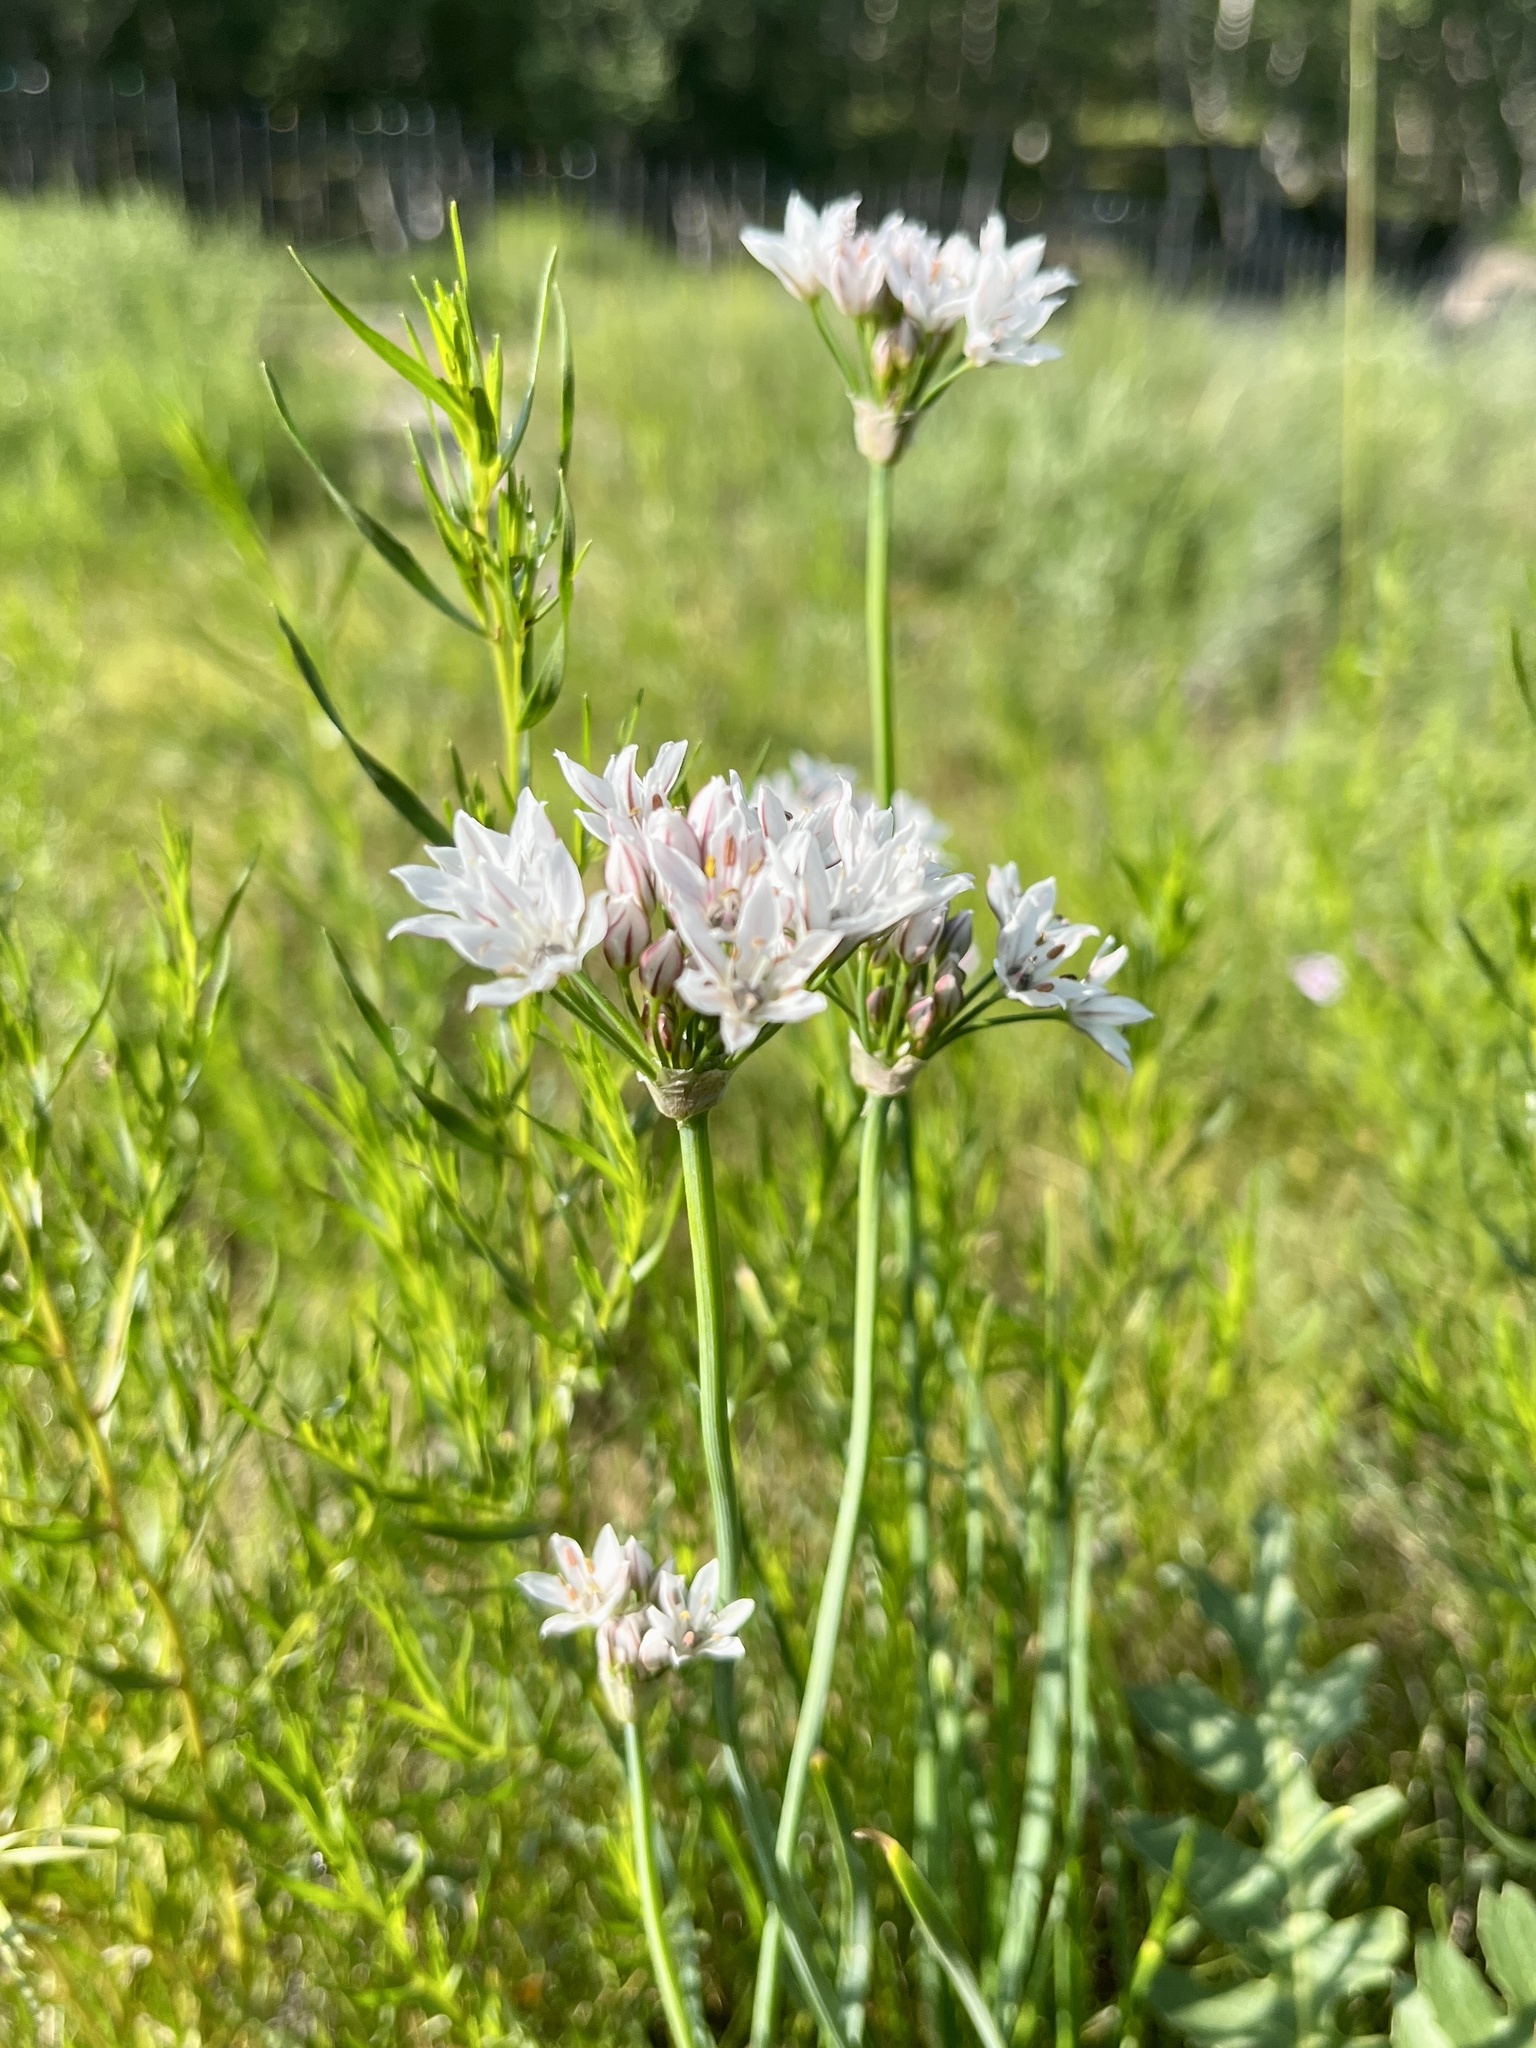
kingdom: Plantae
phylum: Tracheophyta
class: Liliopsida
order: Asparagales
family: Amaryllidaceae
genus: Allium
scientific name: Allium ramosum
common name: Fragrant garlic
